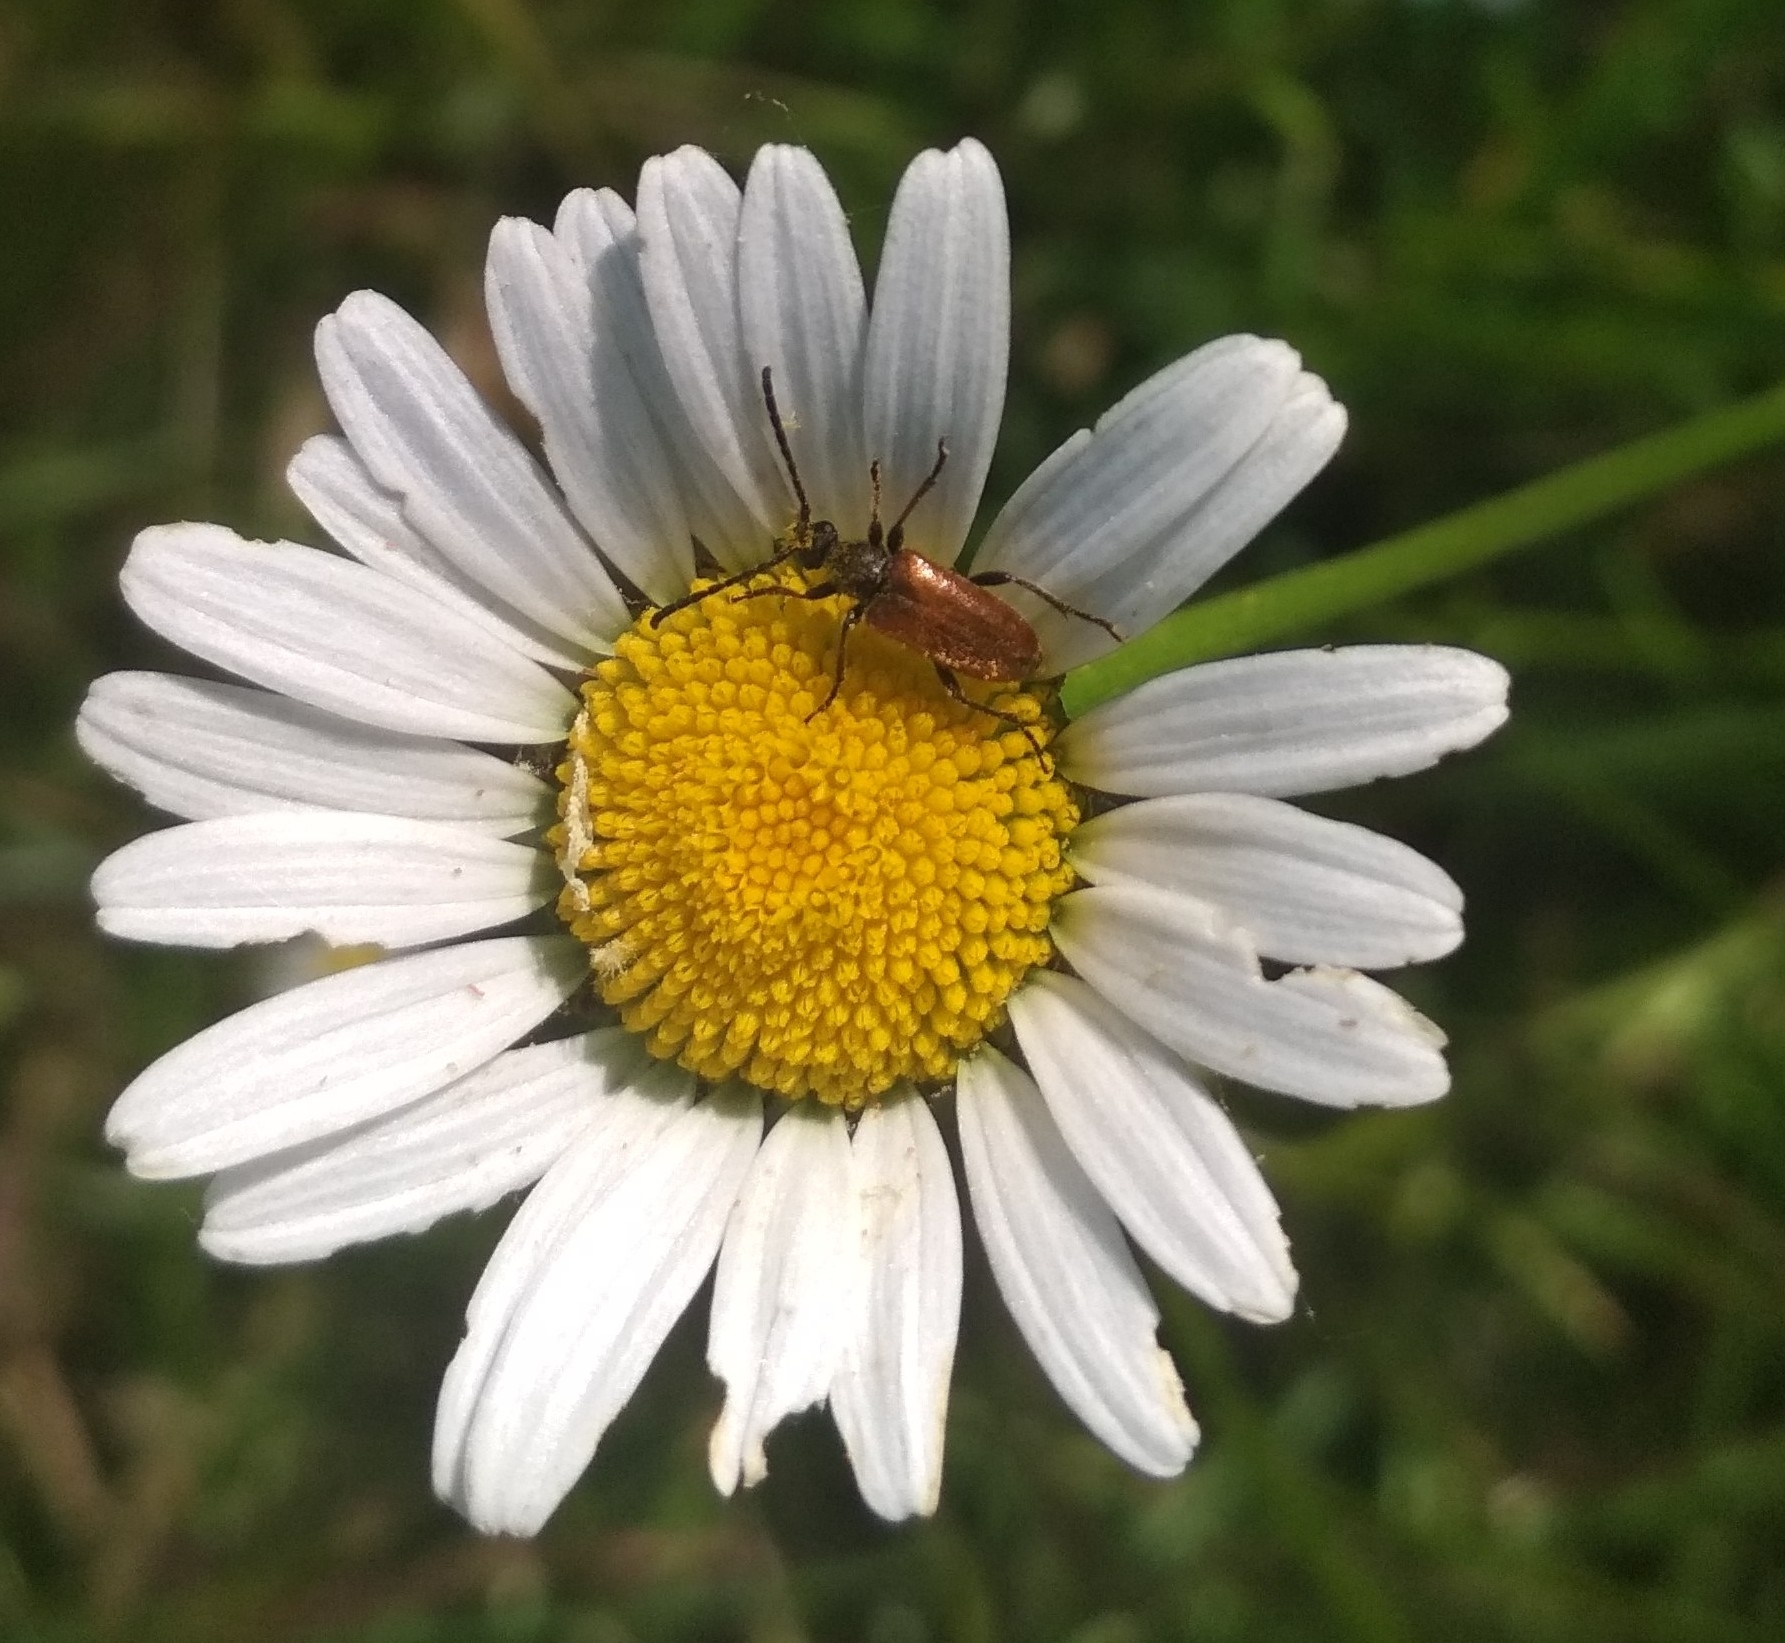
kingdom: Animalia
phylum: Arthropoda
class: Insecta
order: Coleoptera
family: Cerambycidae
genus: Pseudovadonia
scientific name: Pseudovadonia livida
